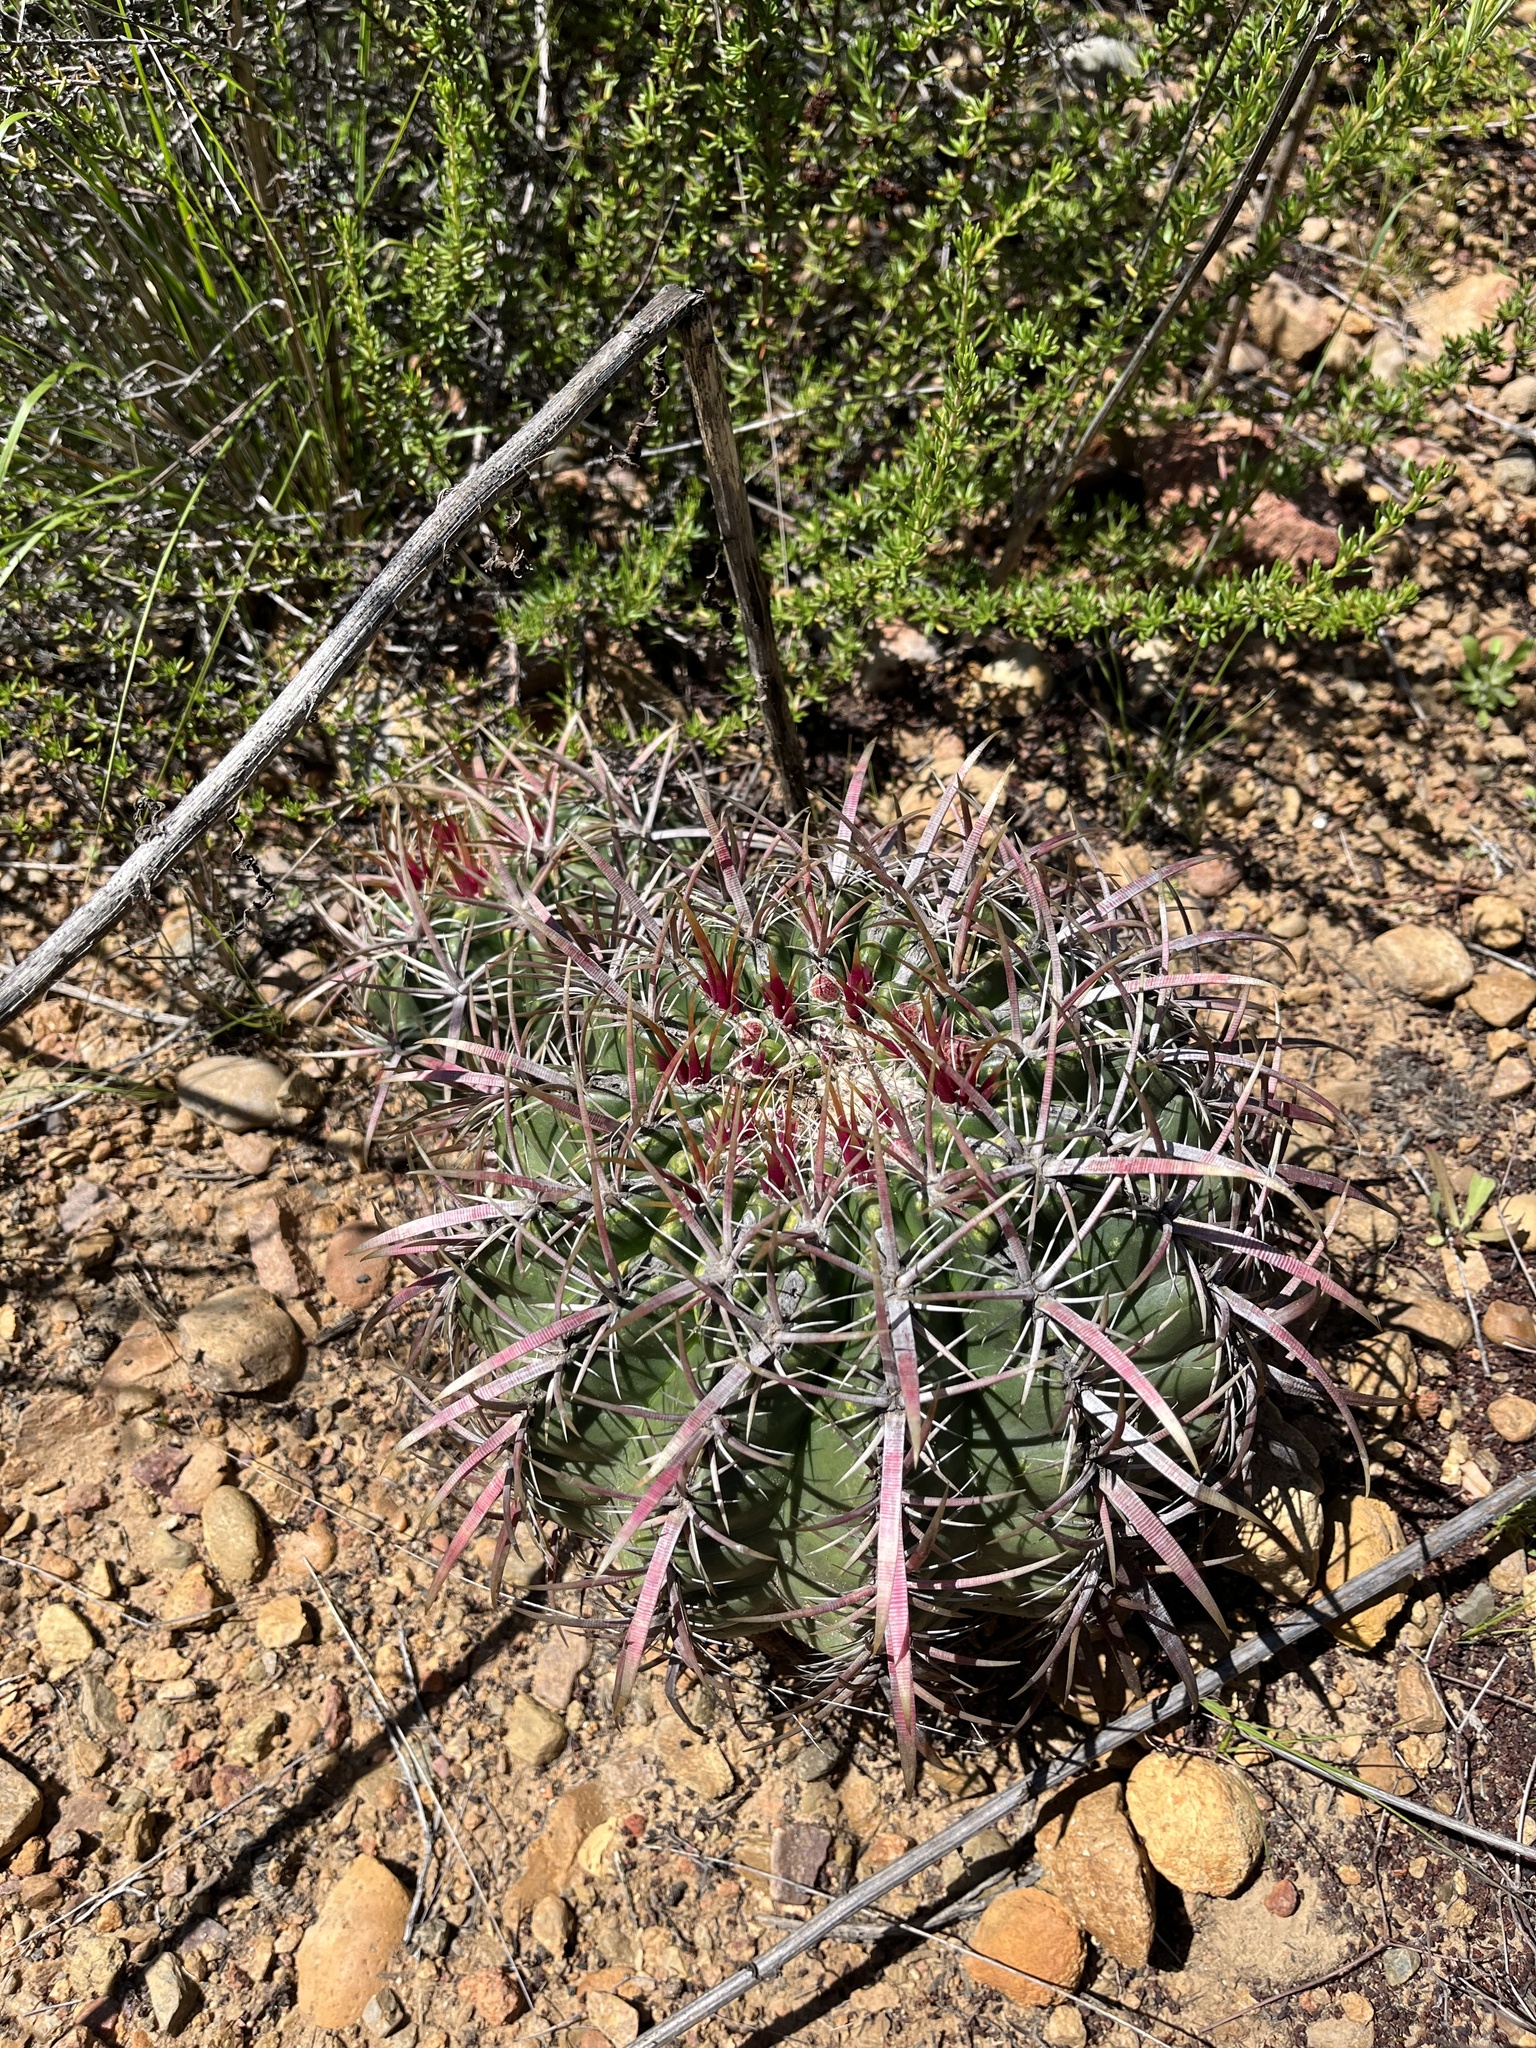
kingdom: Plantae
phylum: Tracheophyta
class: Magnoliopsida
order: Caryophyllales
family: Cactaceae
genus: Ferocactus
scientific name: Ferocactus viridescens
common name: San diego barrel cactus
